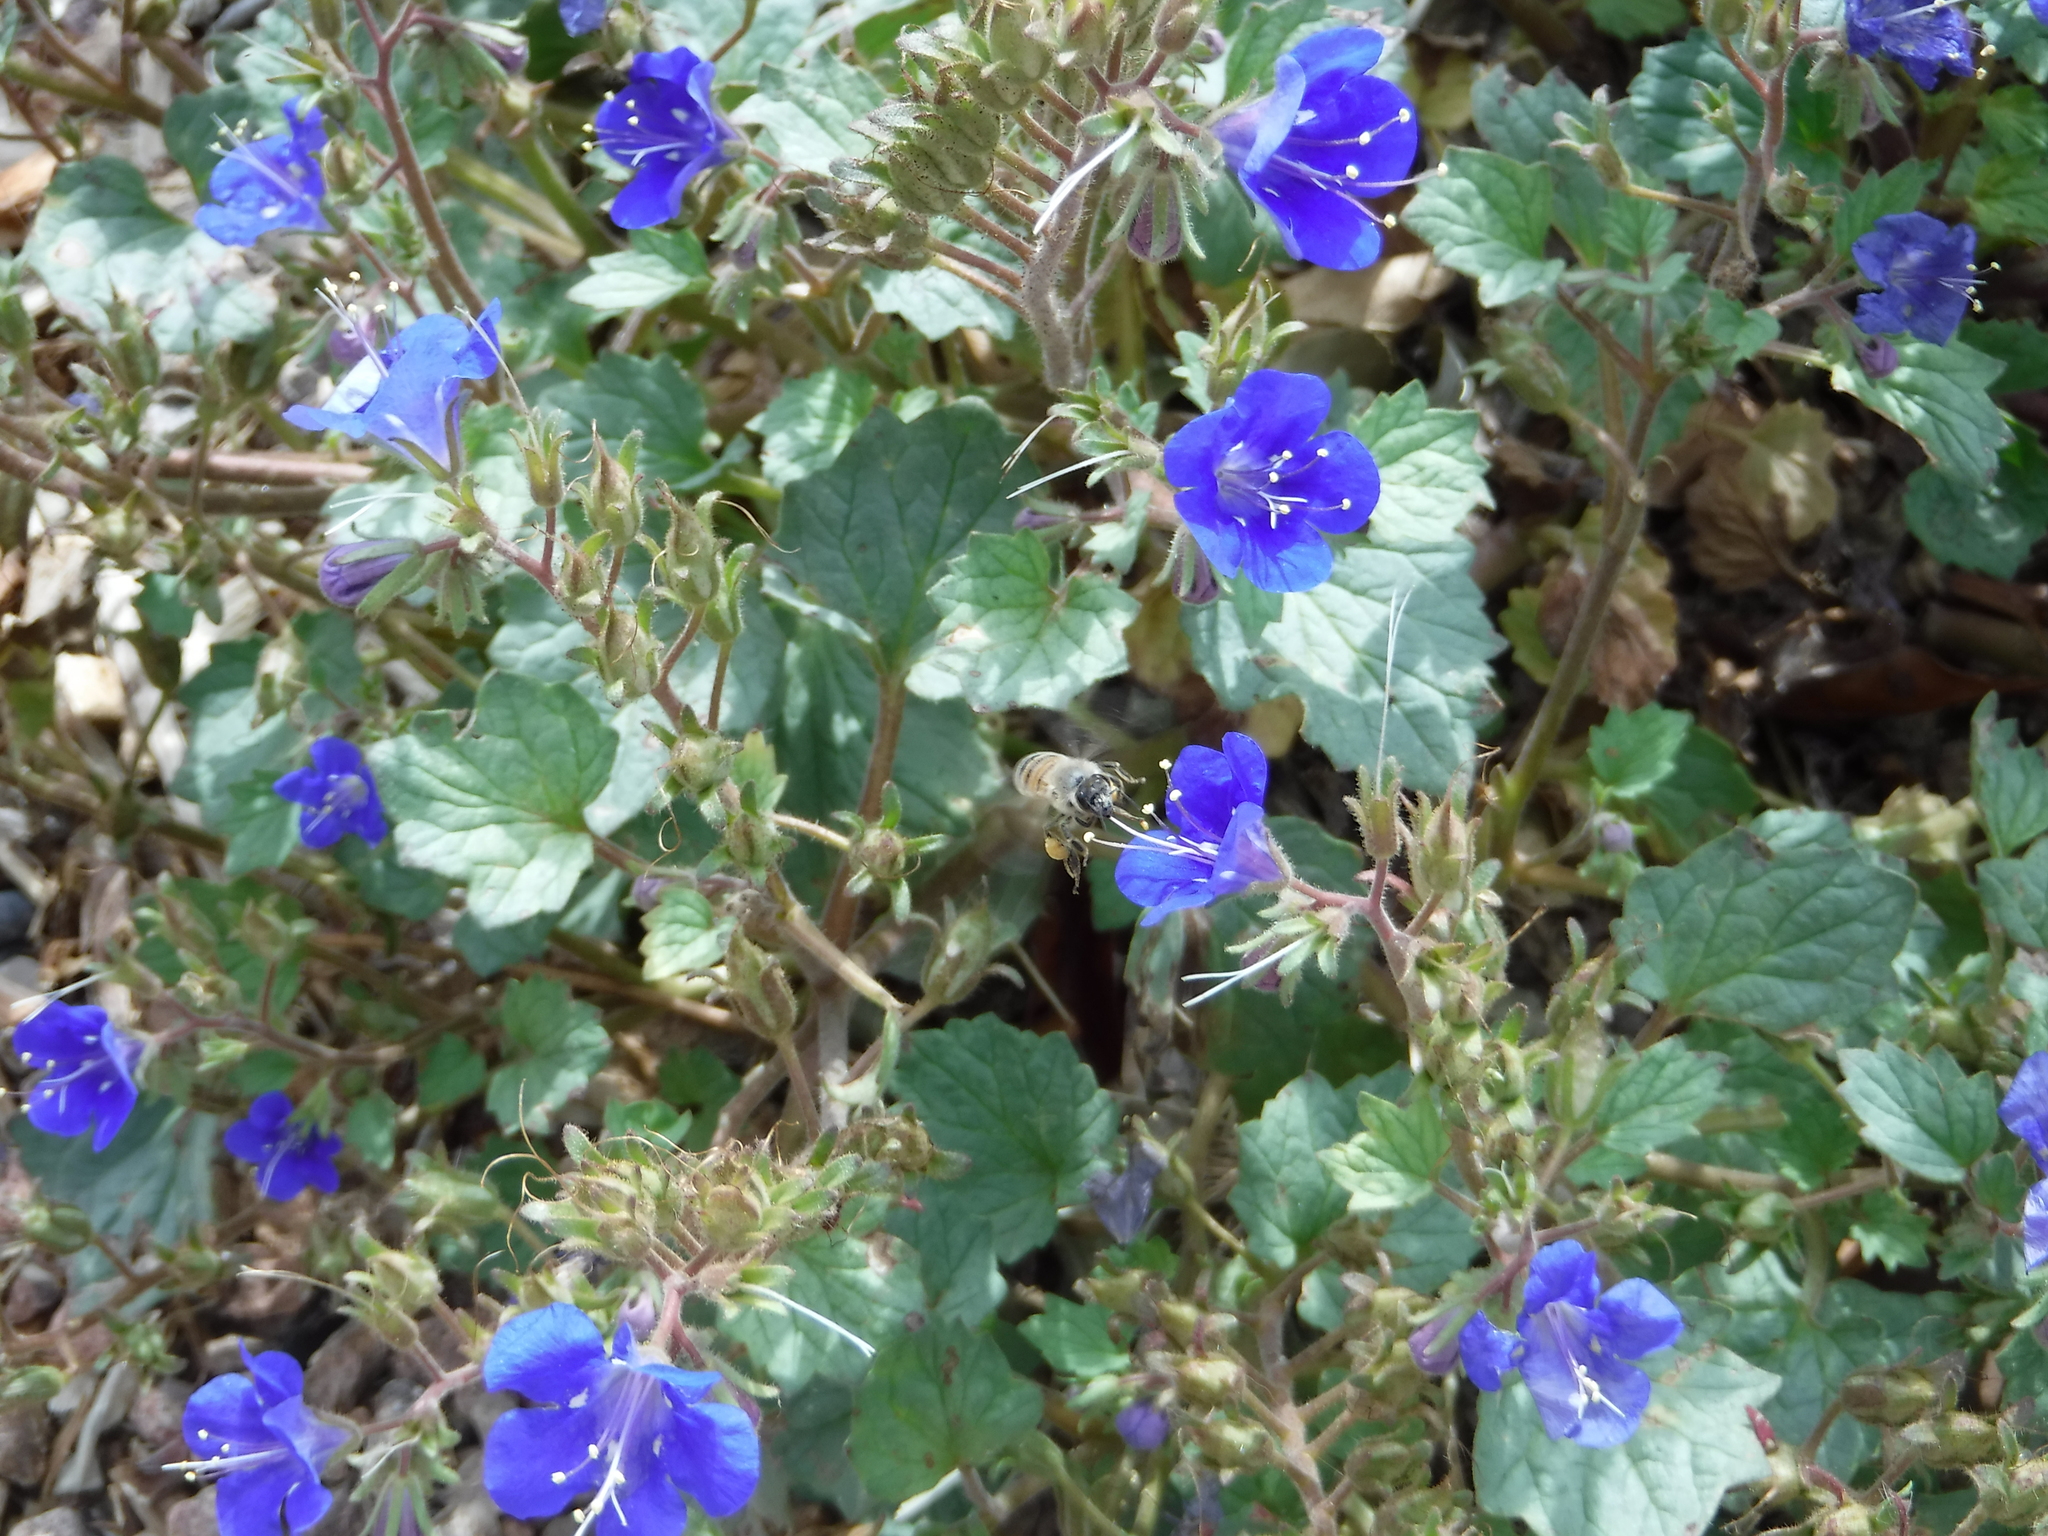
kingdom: Animalia
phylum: Arthropoda
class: Insecta
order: Hymenoptera
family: Apidae
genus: Apis
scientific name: Apis mellifera
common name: Honey bee
